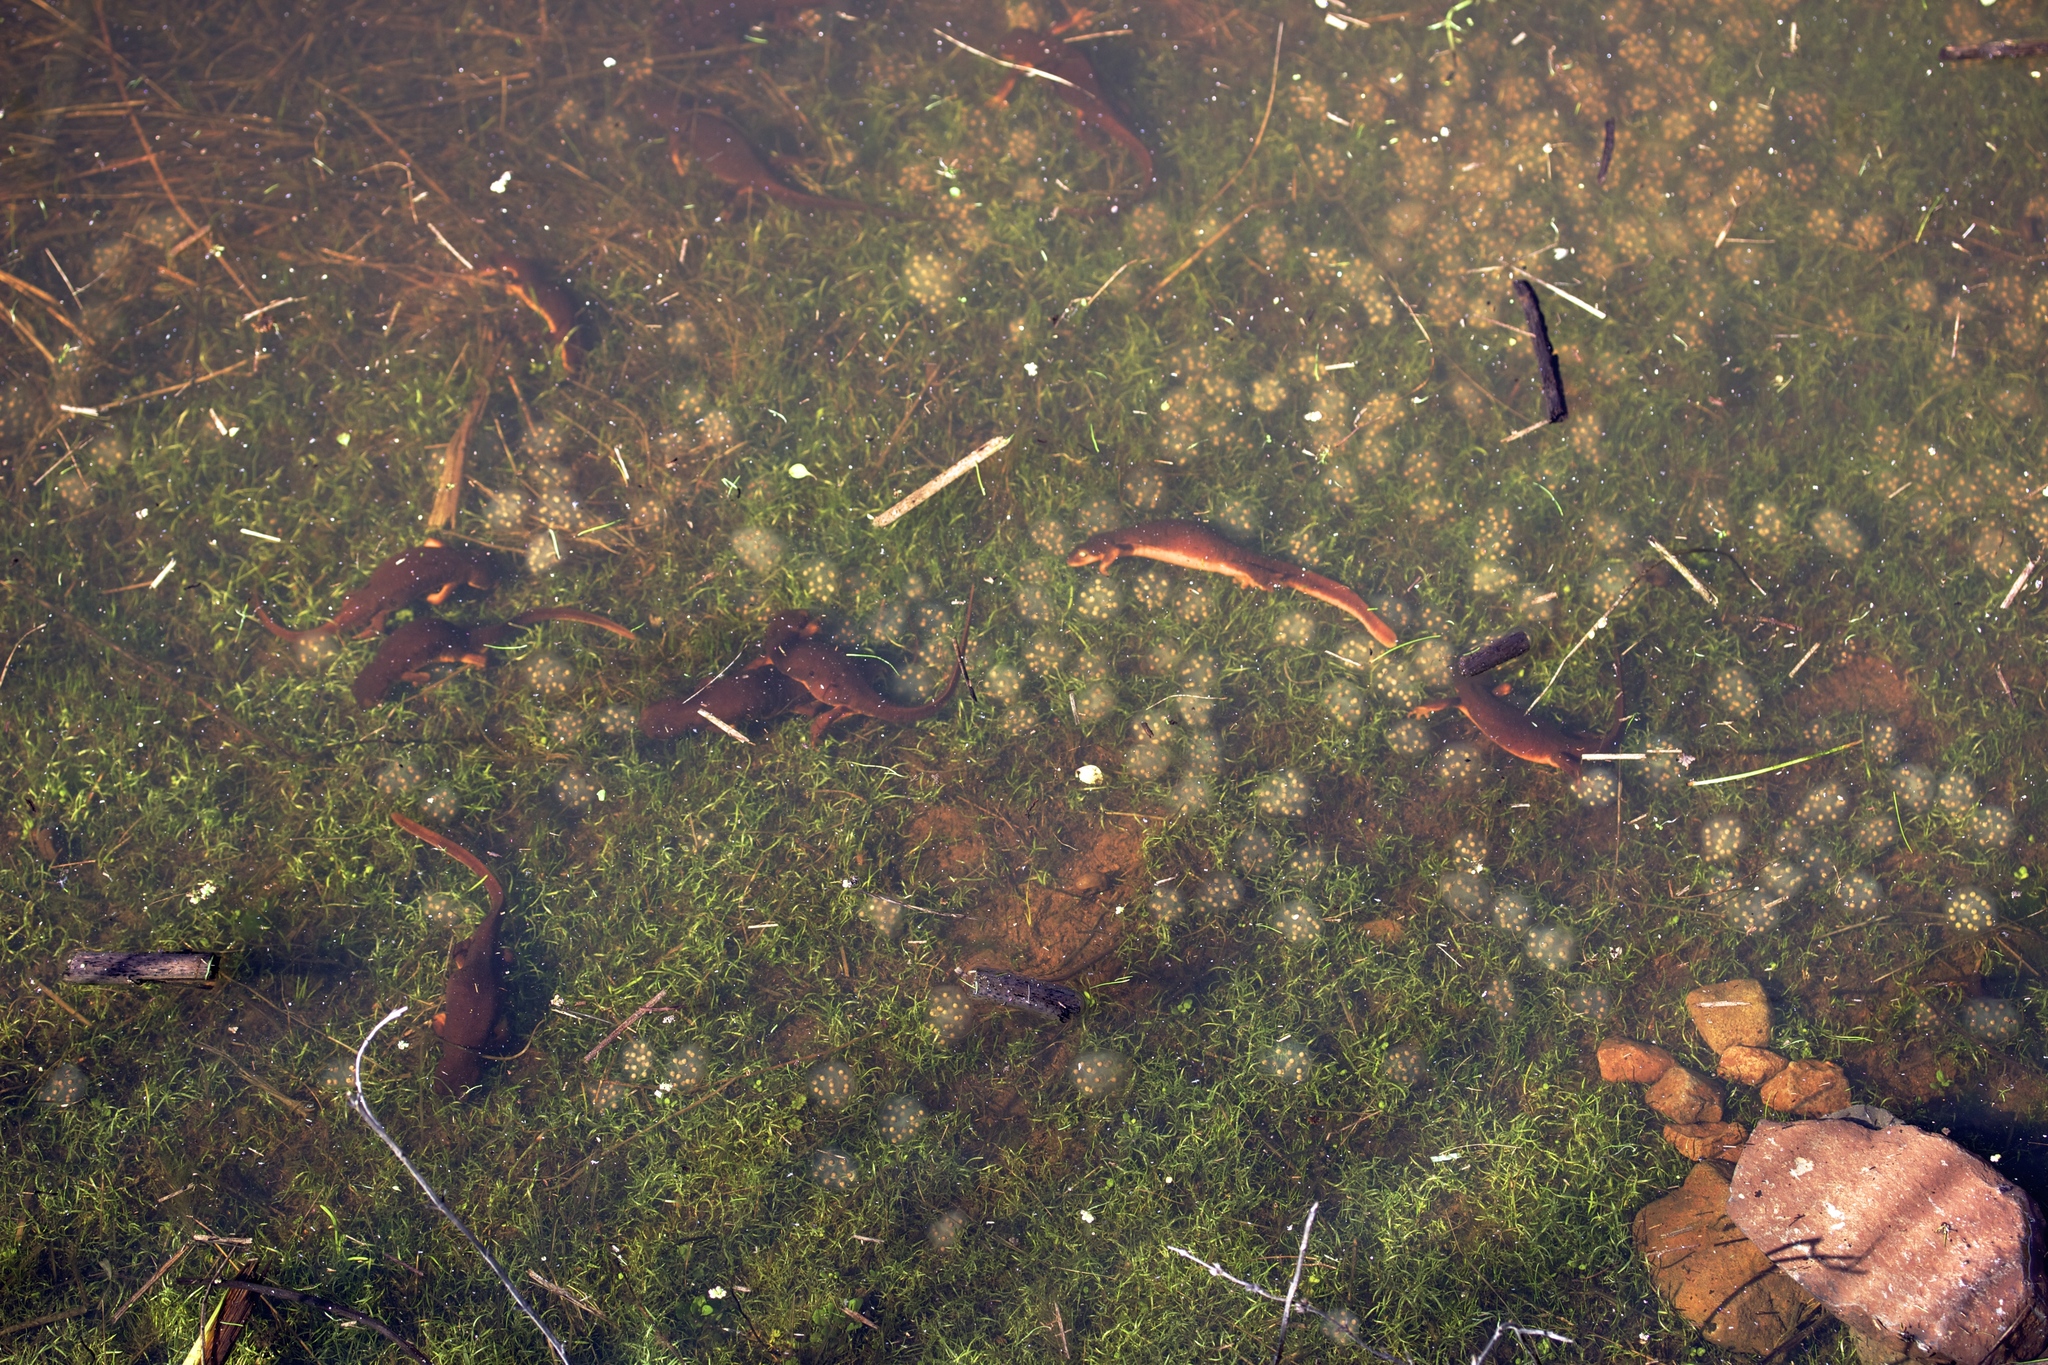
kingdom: Animalia
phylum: Chordata
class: Amphibia
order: Caudata
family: Salamandridae
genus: Taricha
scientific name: Taricha torosa
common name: California newt
